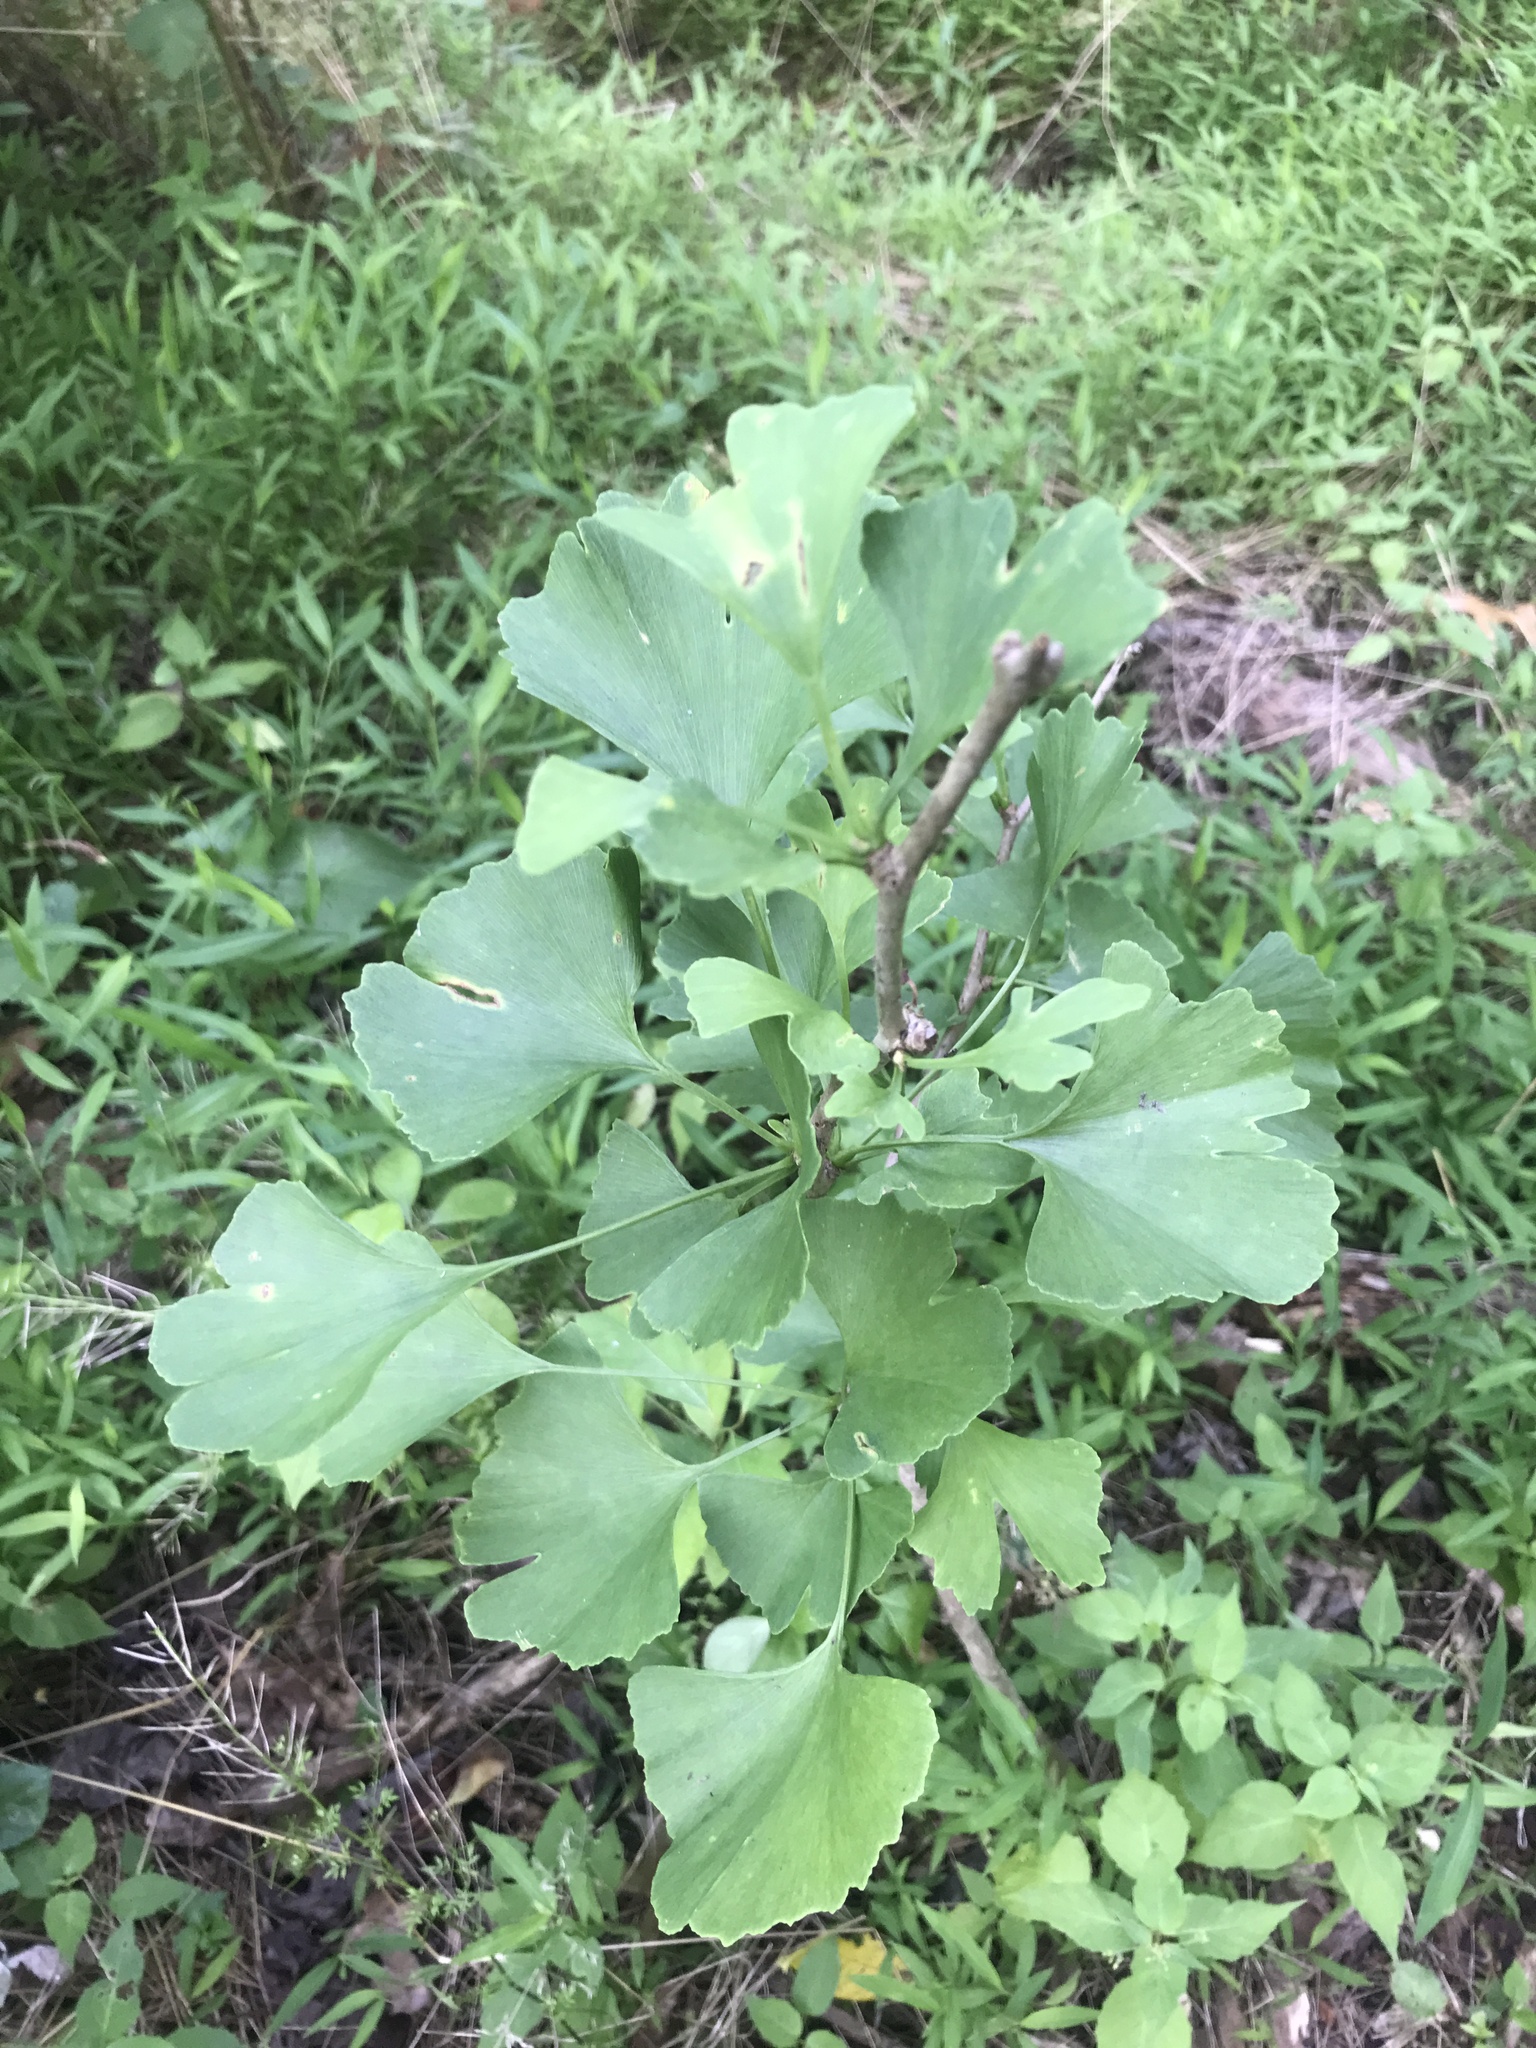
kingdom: Plantae
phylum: Tracheophyta
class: Ginkgoopsida
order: Ginkgoales
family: Ginkgoaceae
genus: Ginkgo
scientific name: Ginkgo biloba
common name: Ginkgo
